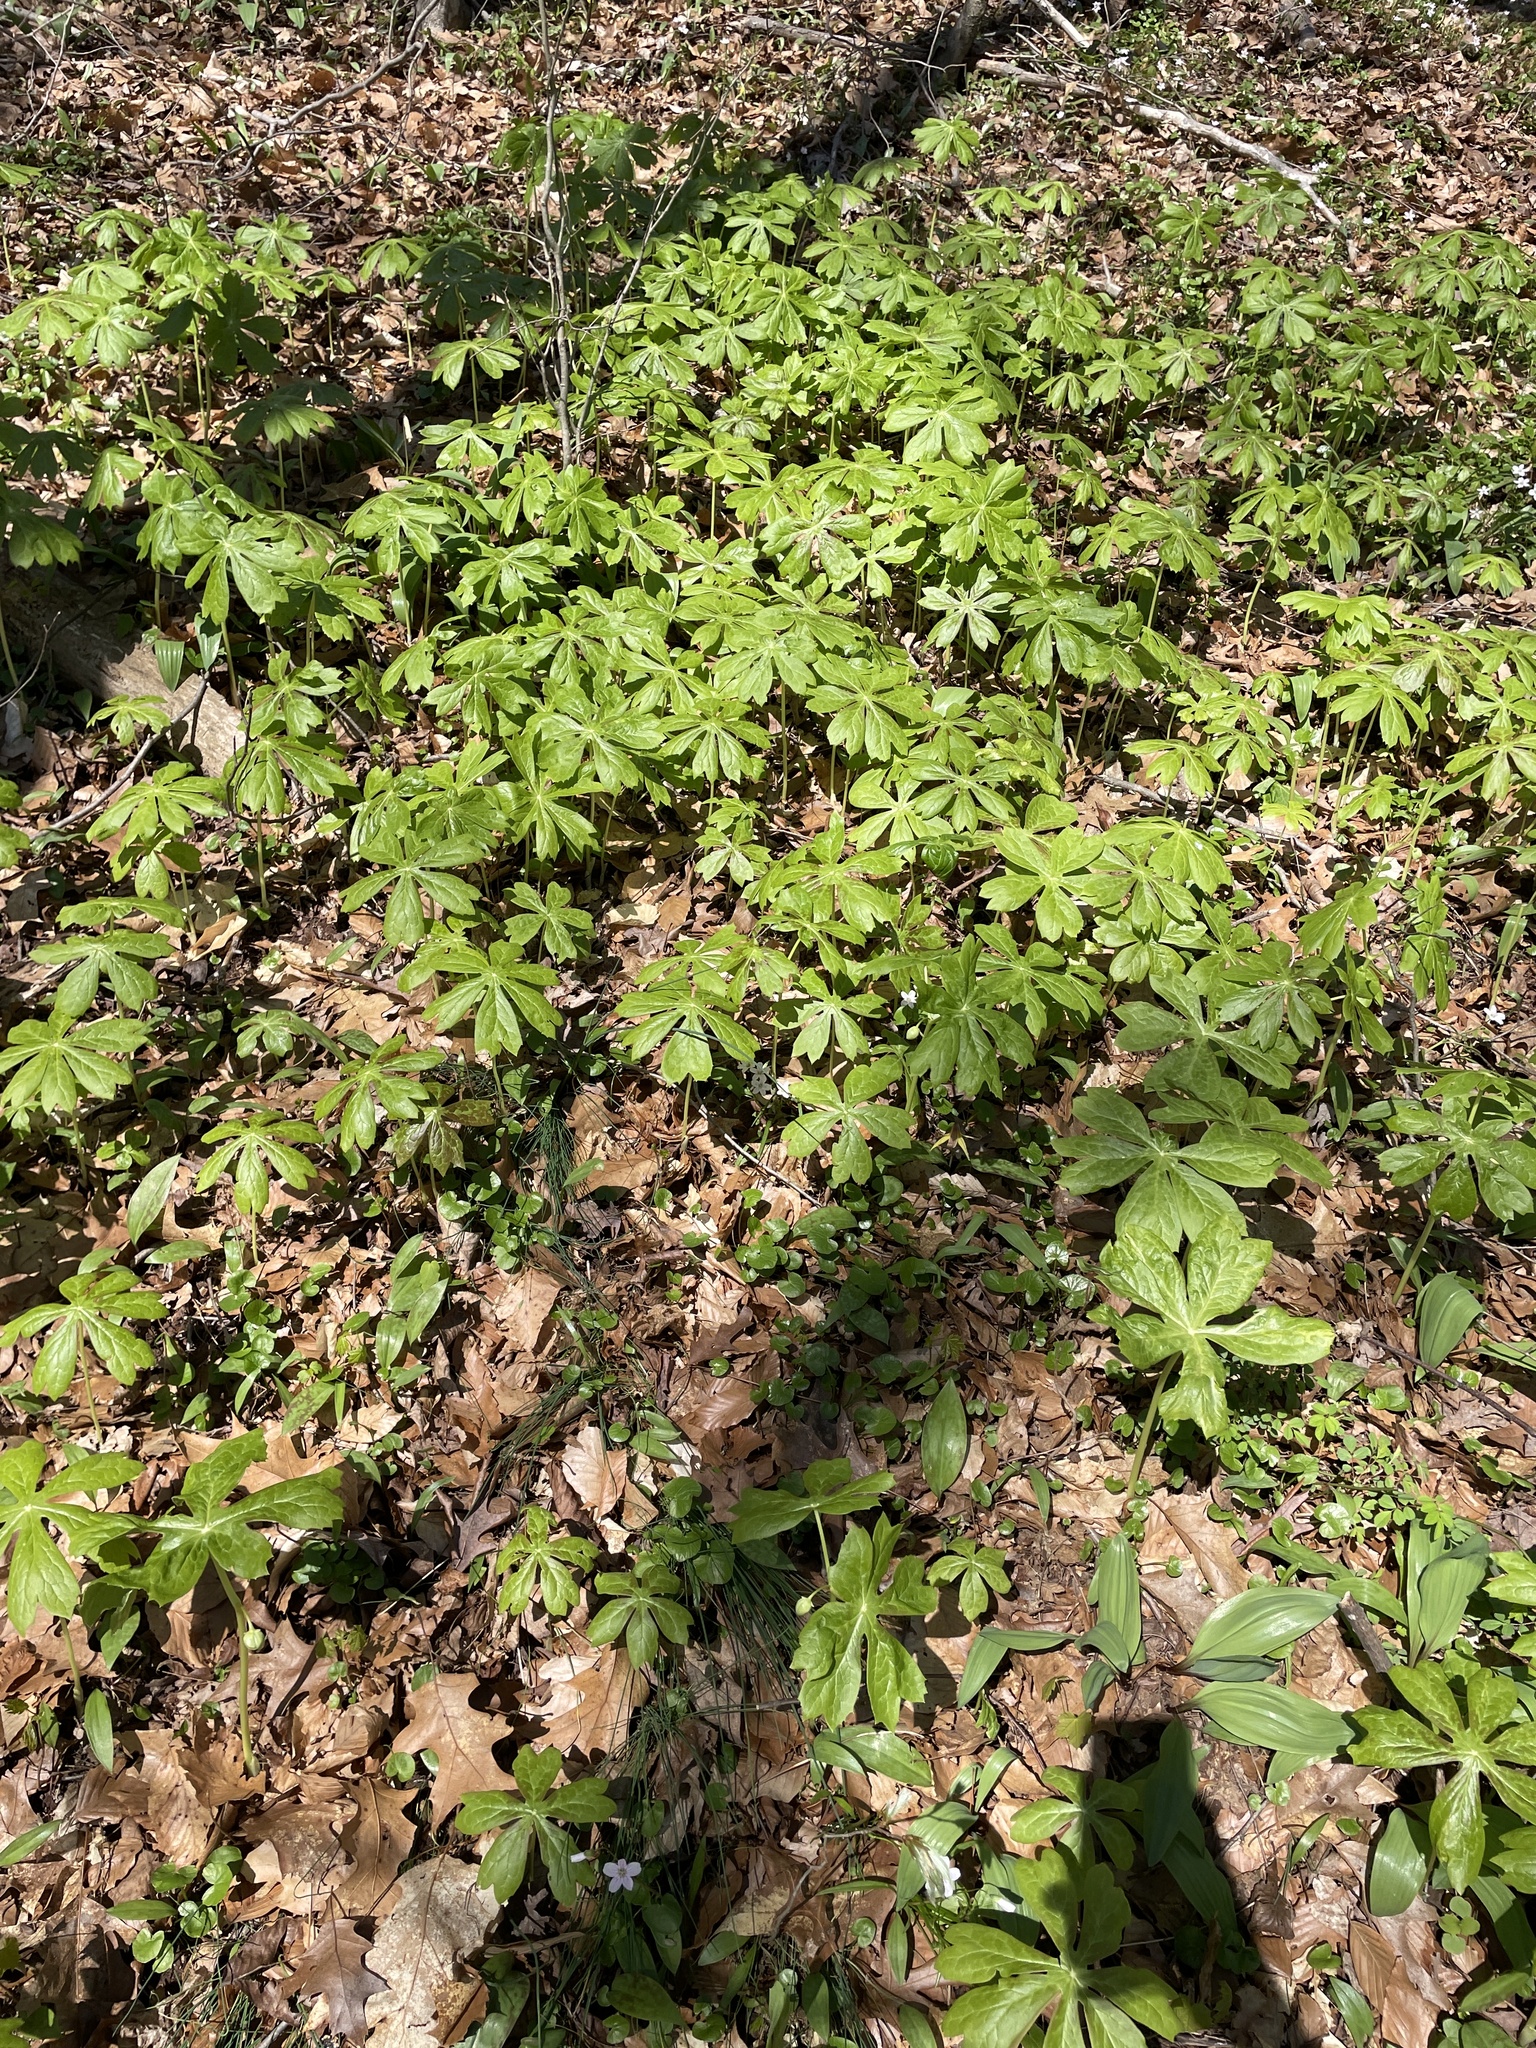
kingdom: Plantae
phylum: Tracheophyta
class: Magnoliopsida
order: Ranunculales
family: Berberidaceae
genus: Podophyllum
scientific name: Podophyllum peltatum
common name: Wild mandrake
